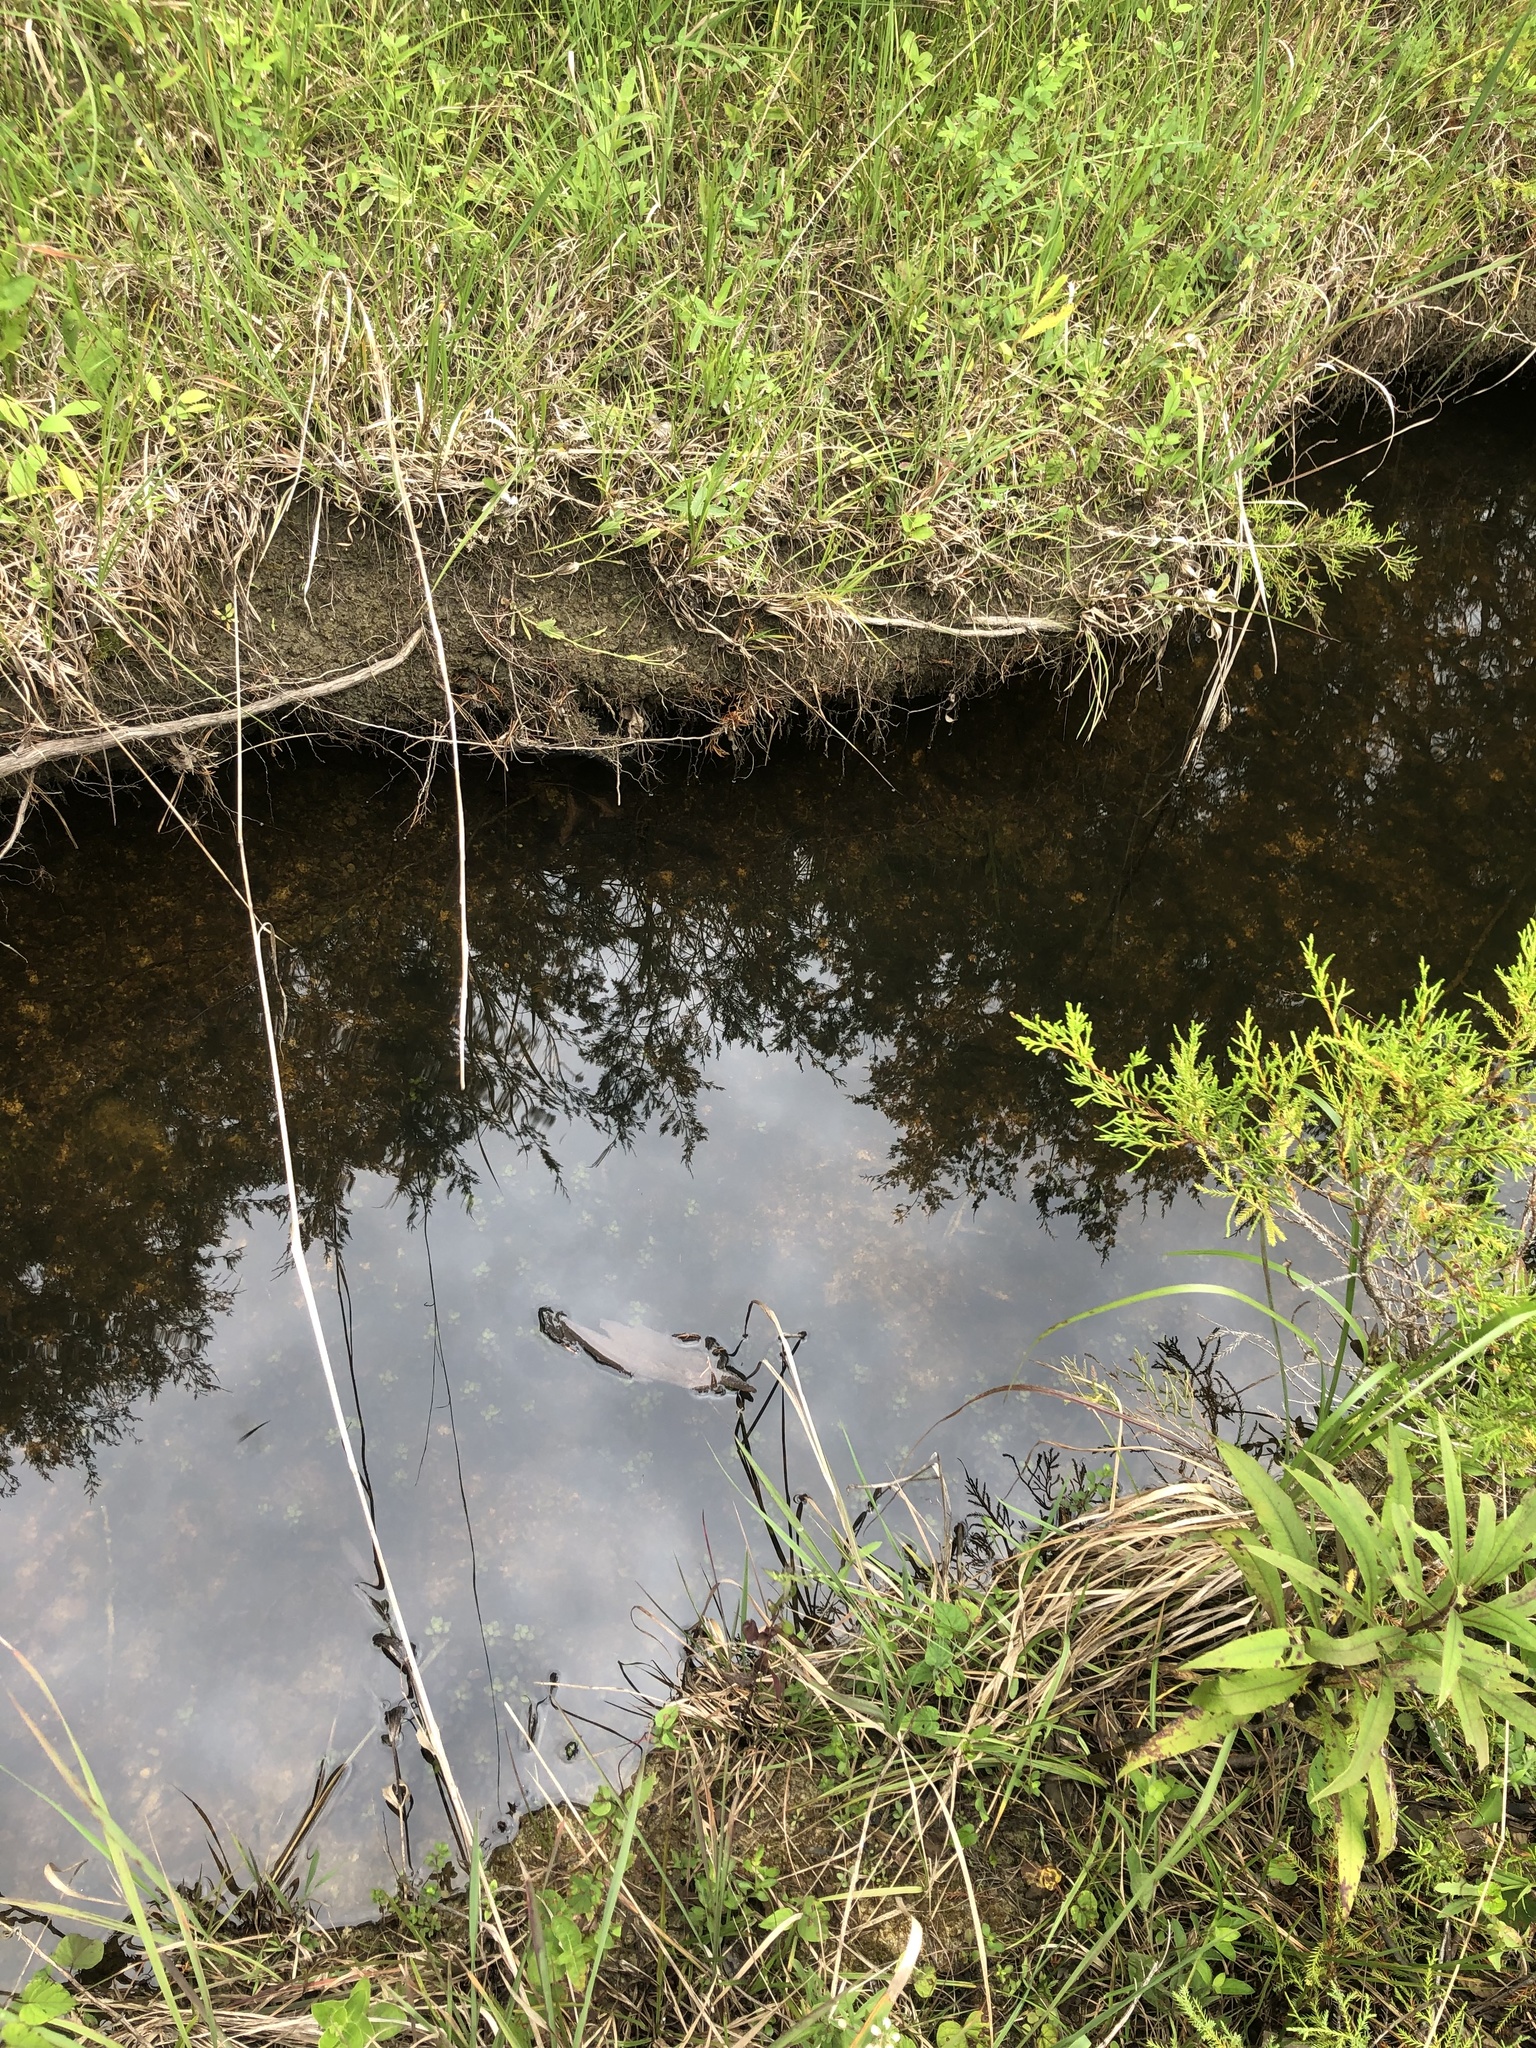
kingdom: Plantae
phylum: Tracheophyta
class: Magnoliopsida
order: Myrtales
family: Onagraceae
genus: Ludwigia
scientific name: Ludwigia microcarpa
